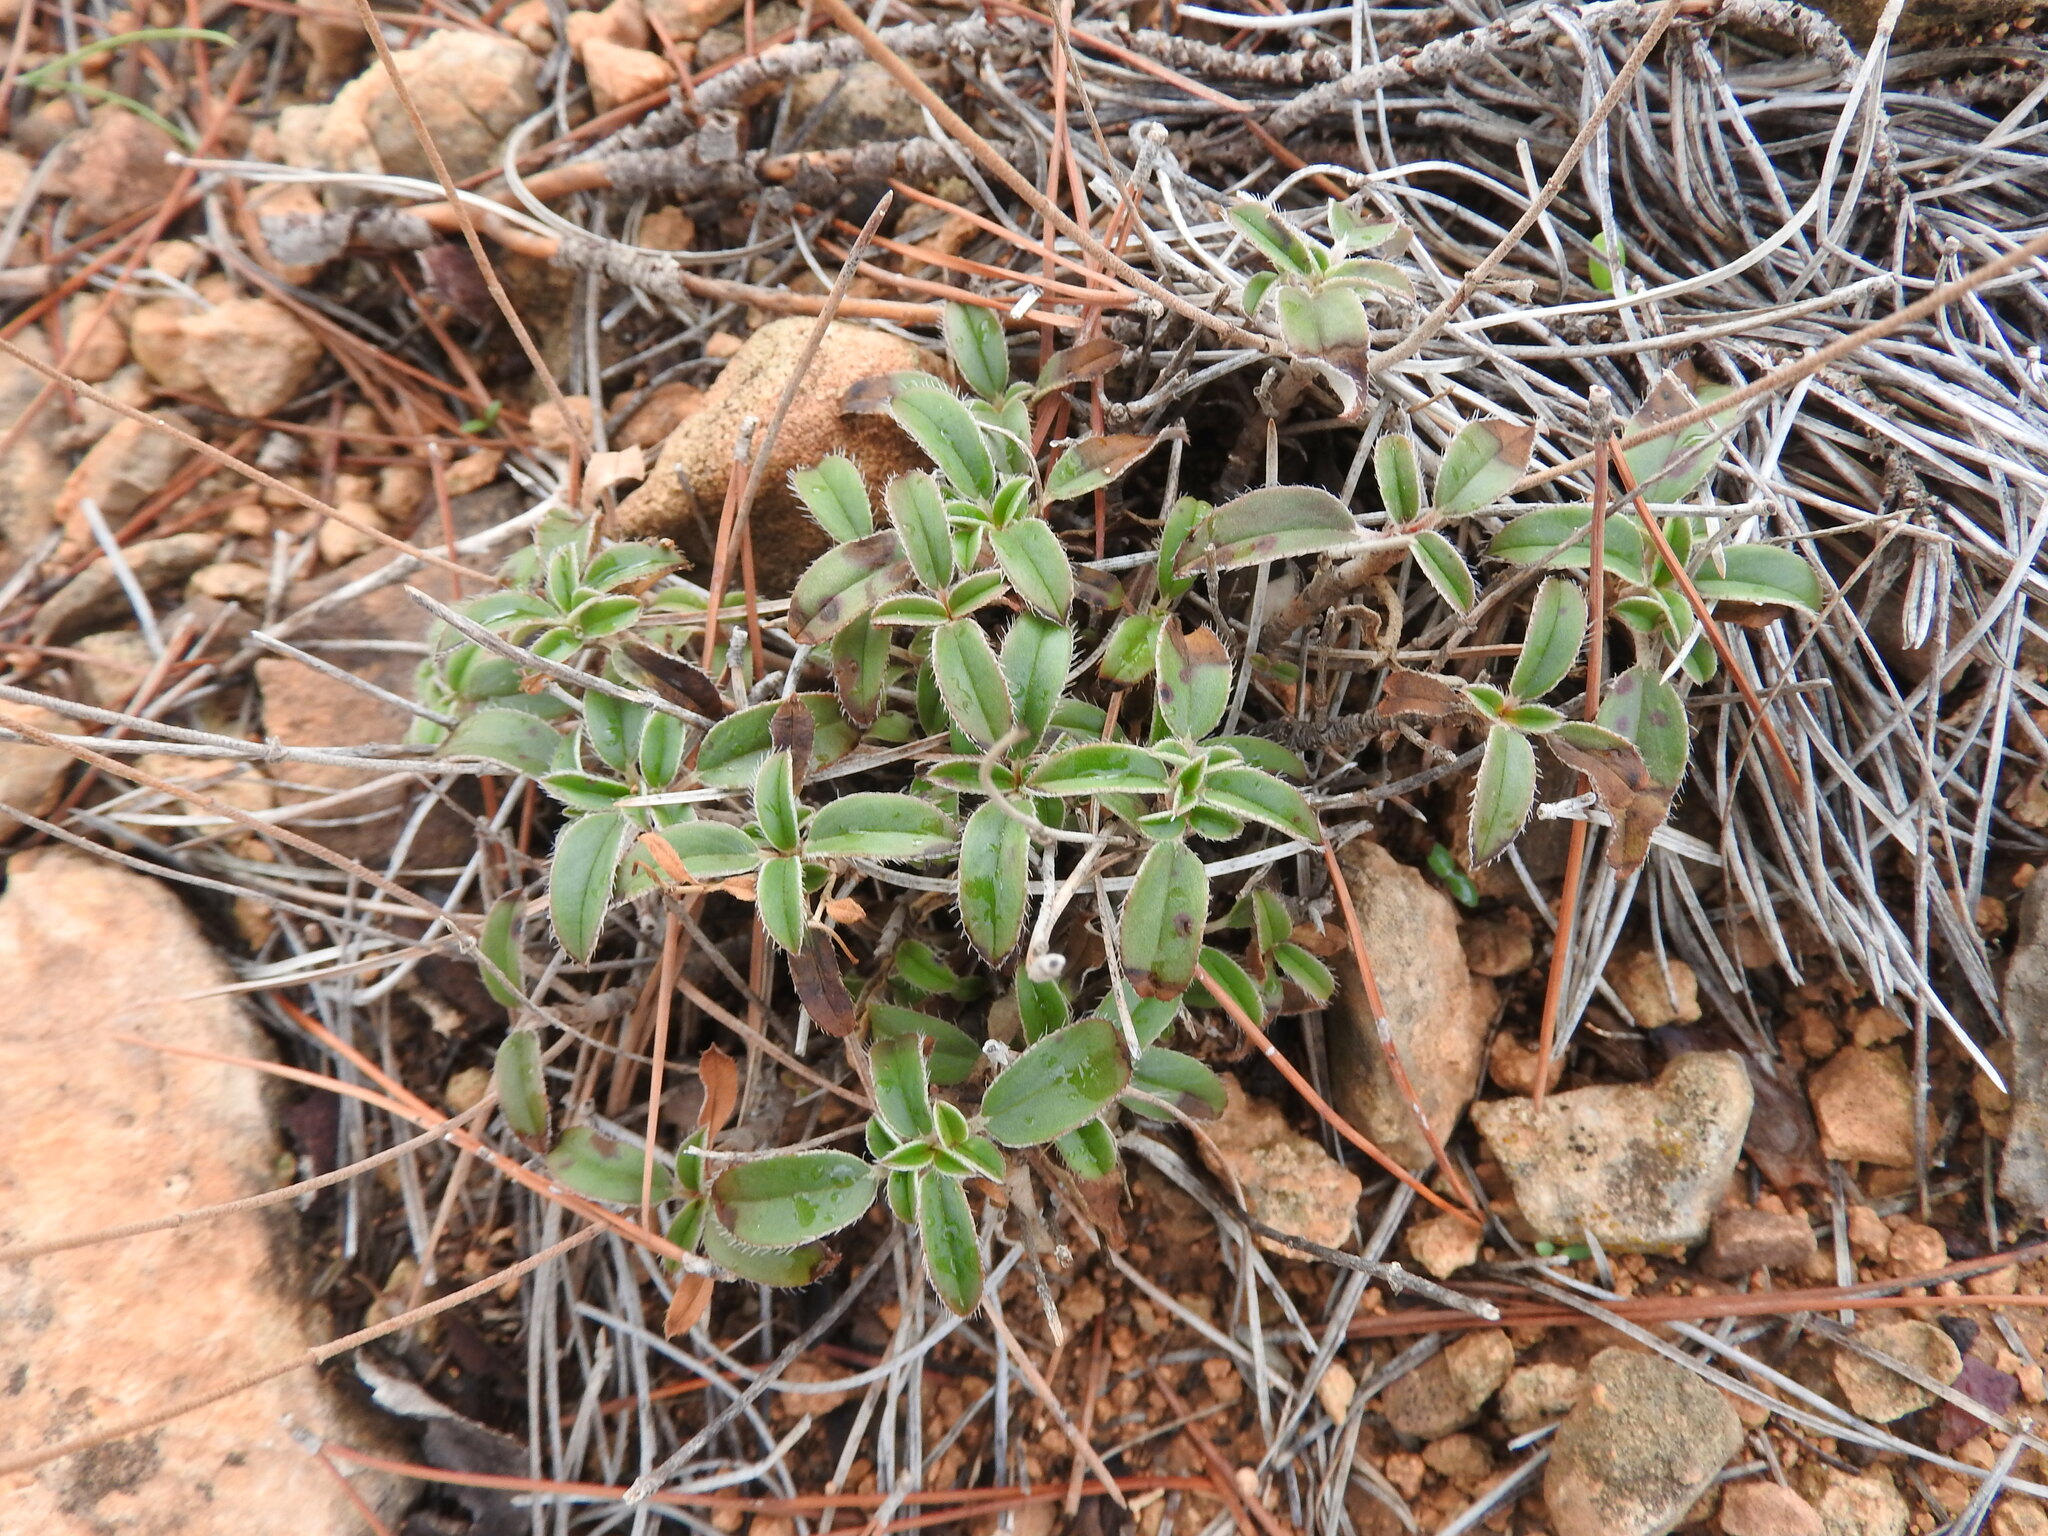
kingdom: Plantae
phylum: Tracheophyta
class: Magnoliopsida
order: Malvales
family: Cistaceae
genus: Helianthemum
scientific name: Helianthemum cinereum
